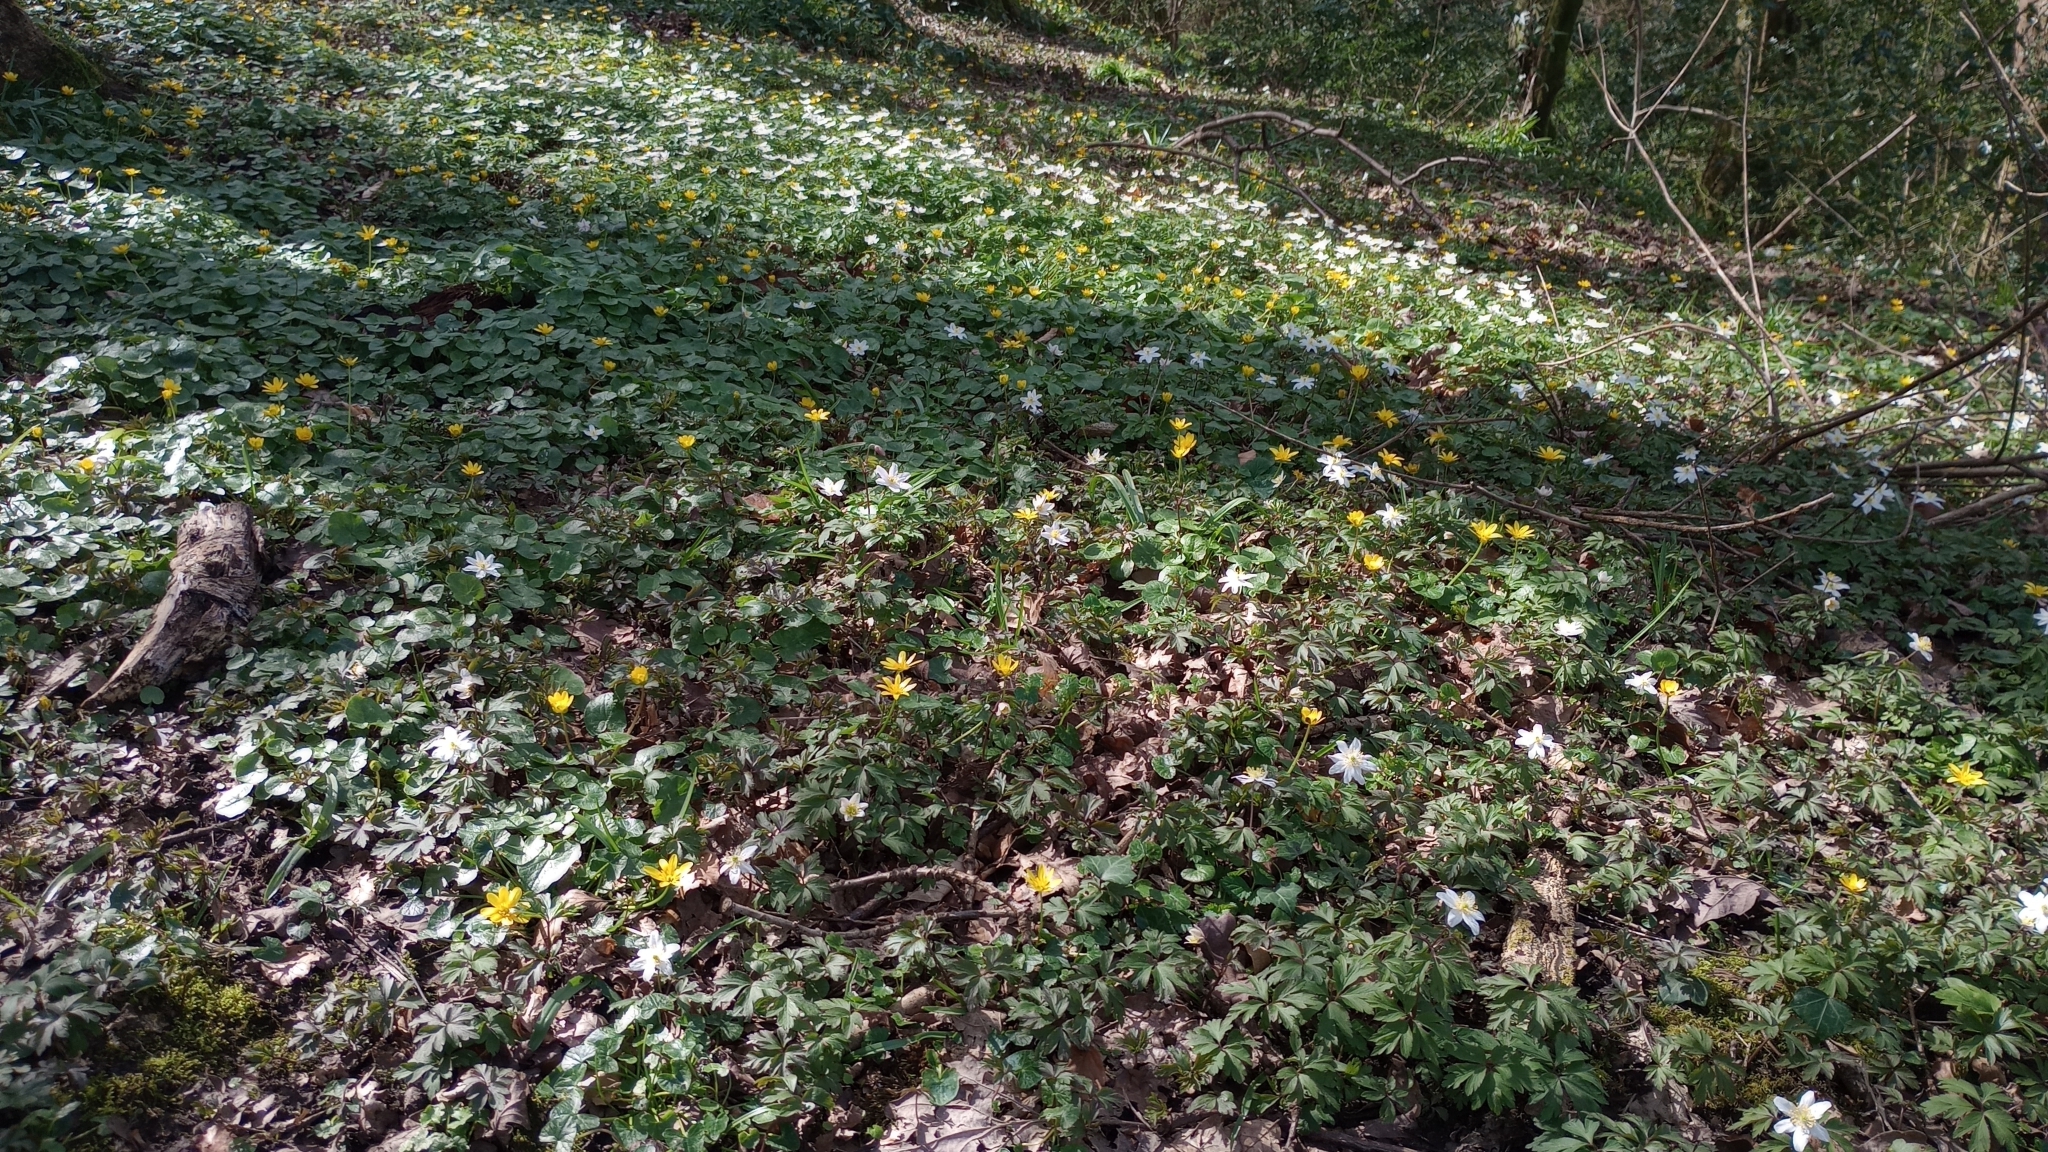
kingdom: Plantae
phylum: Tracheophyta
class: Magnoliopsida
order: Ranunculales
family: Ranunculaceae
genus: Ficaria
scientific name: Ficaria verna
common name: Lesser celandine
